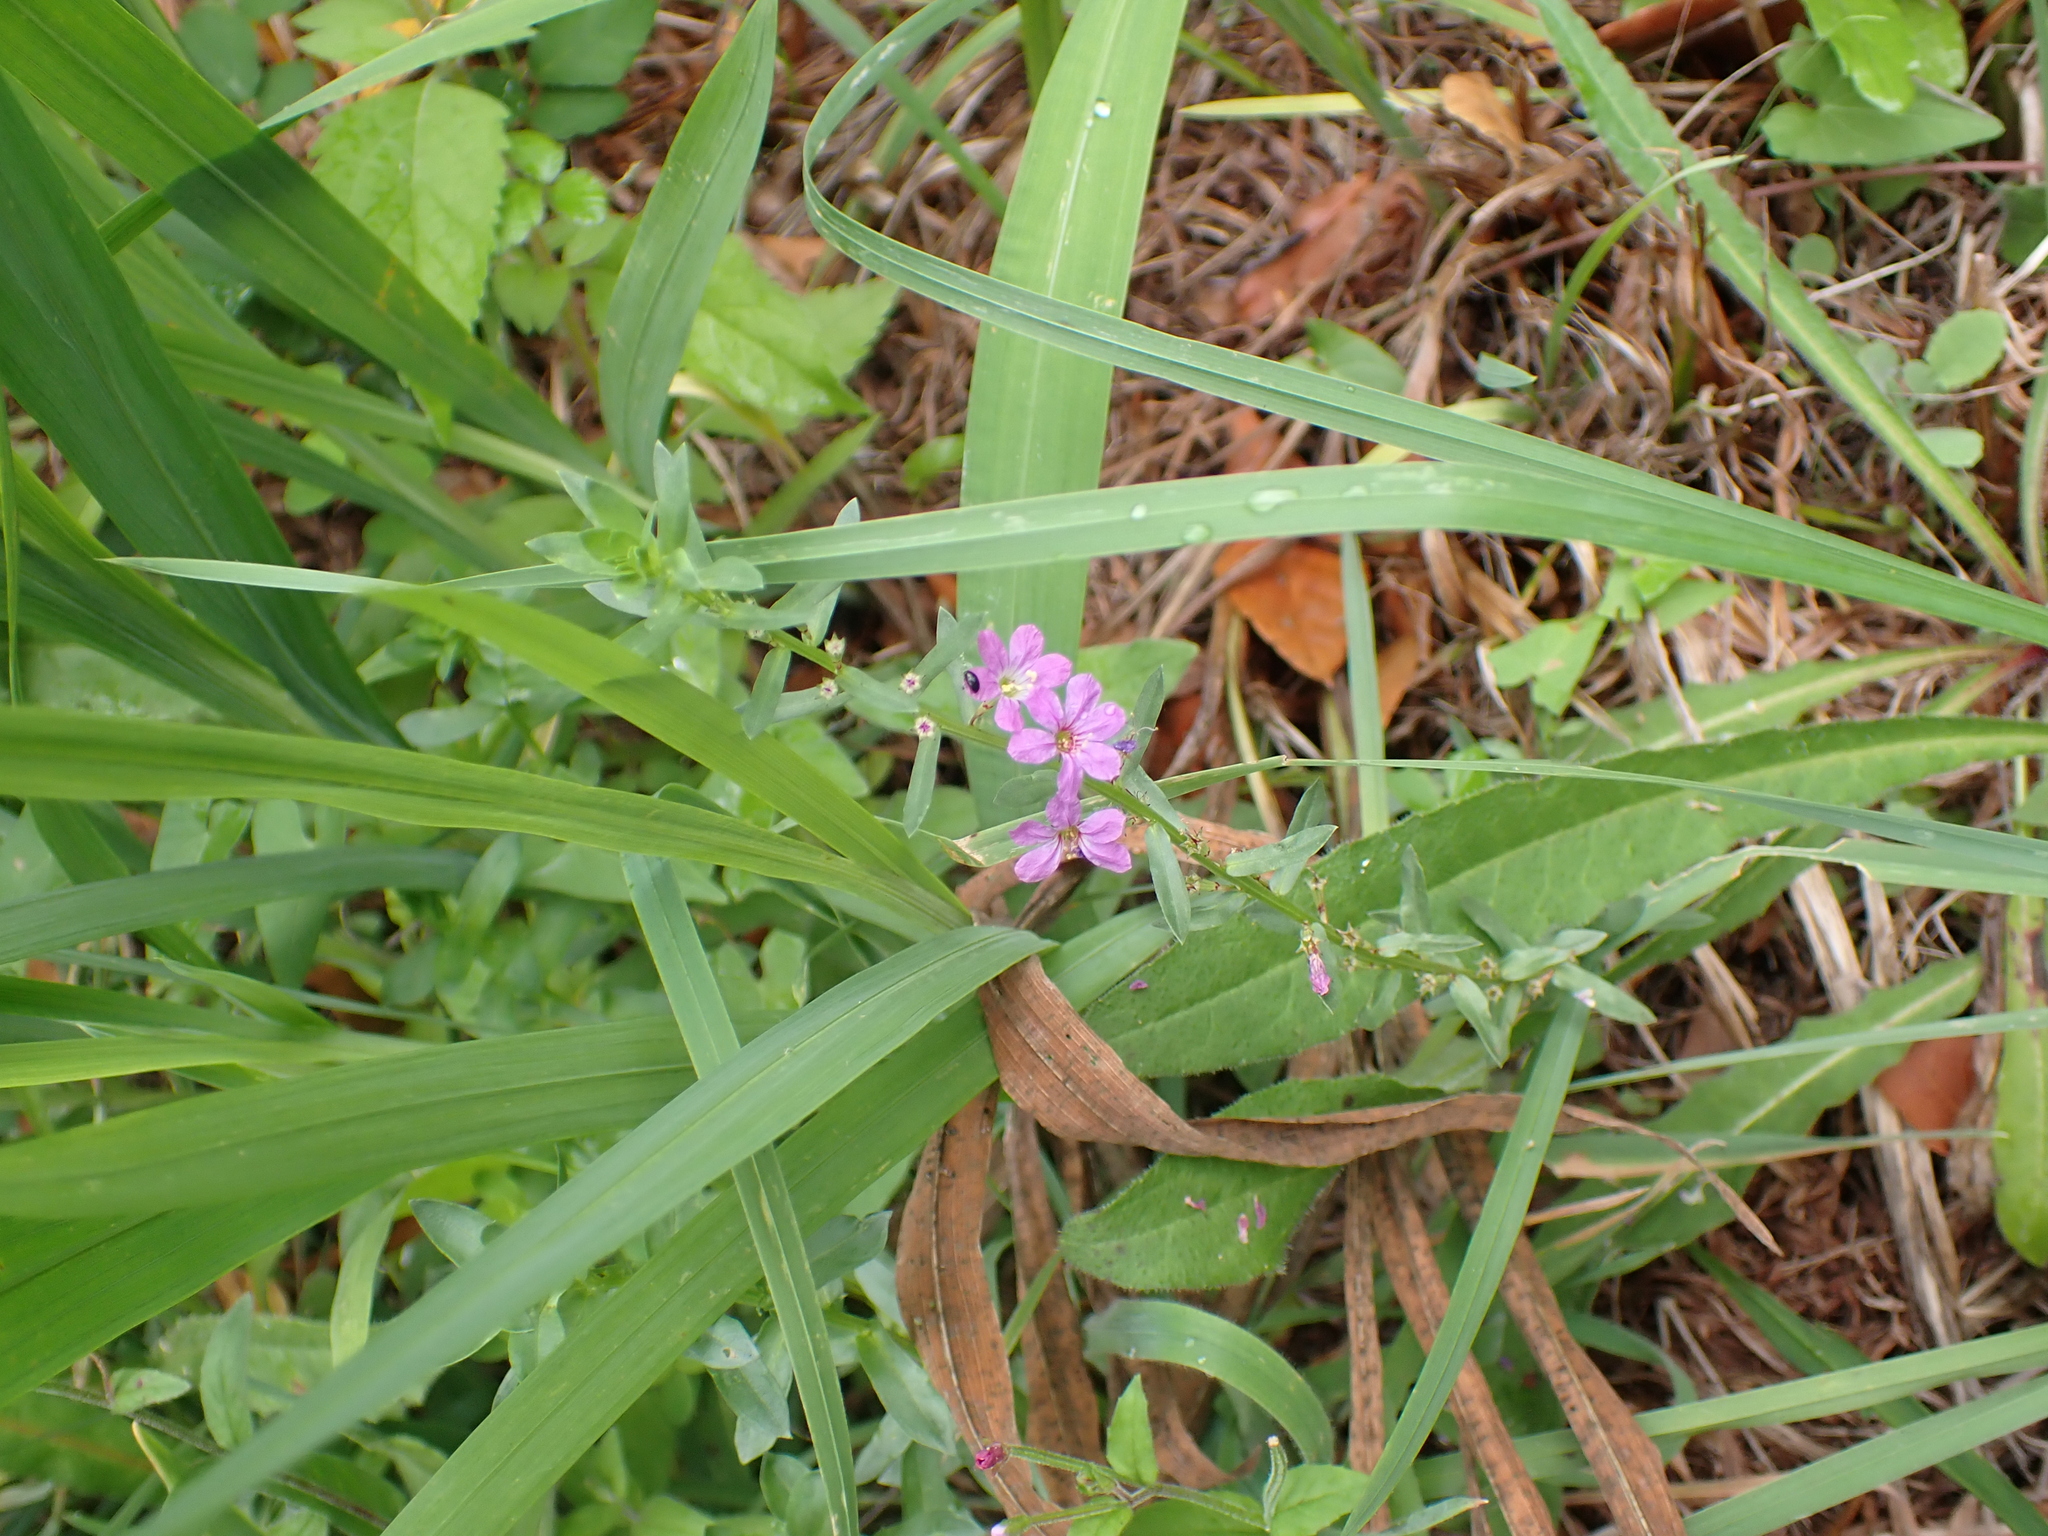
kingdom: Plantae
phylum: Tracheophyta
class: Magnoliopsida
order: Myrtales
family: Lythraceae
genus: Lythrum
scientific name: Lythrum junceum
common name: False grass-poly
